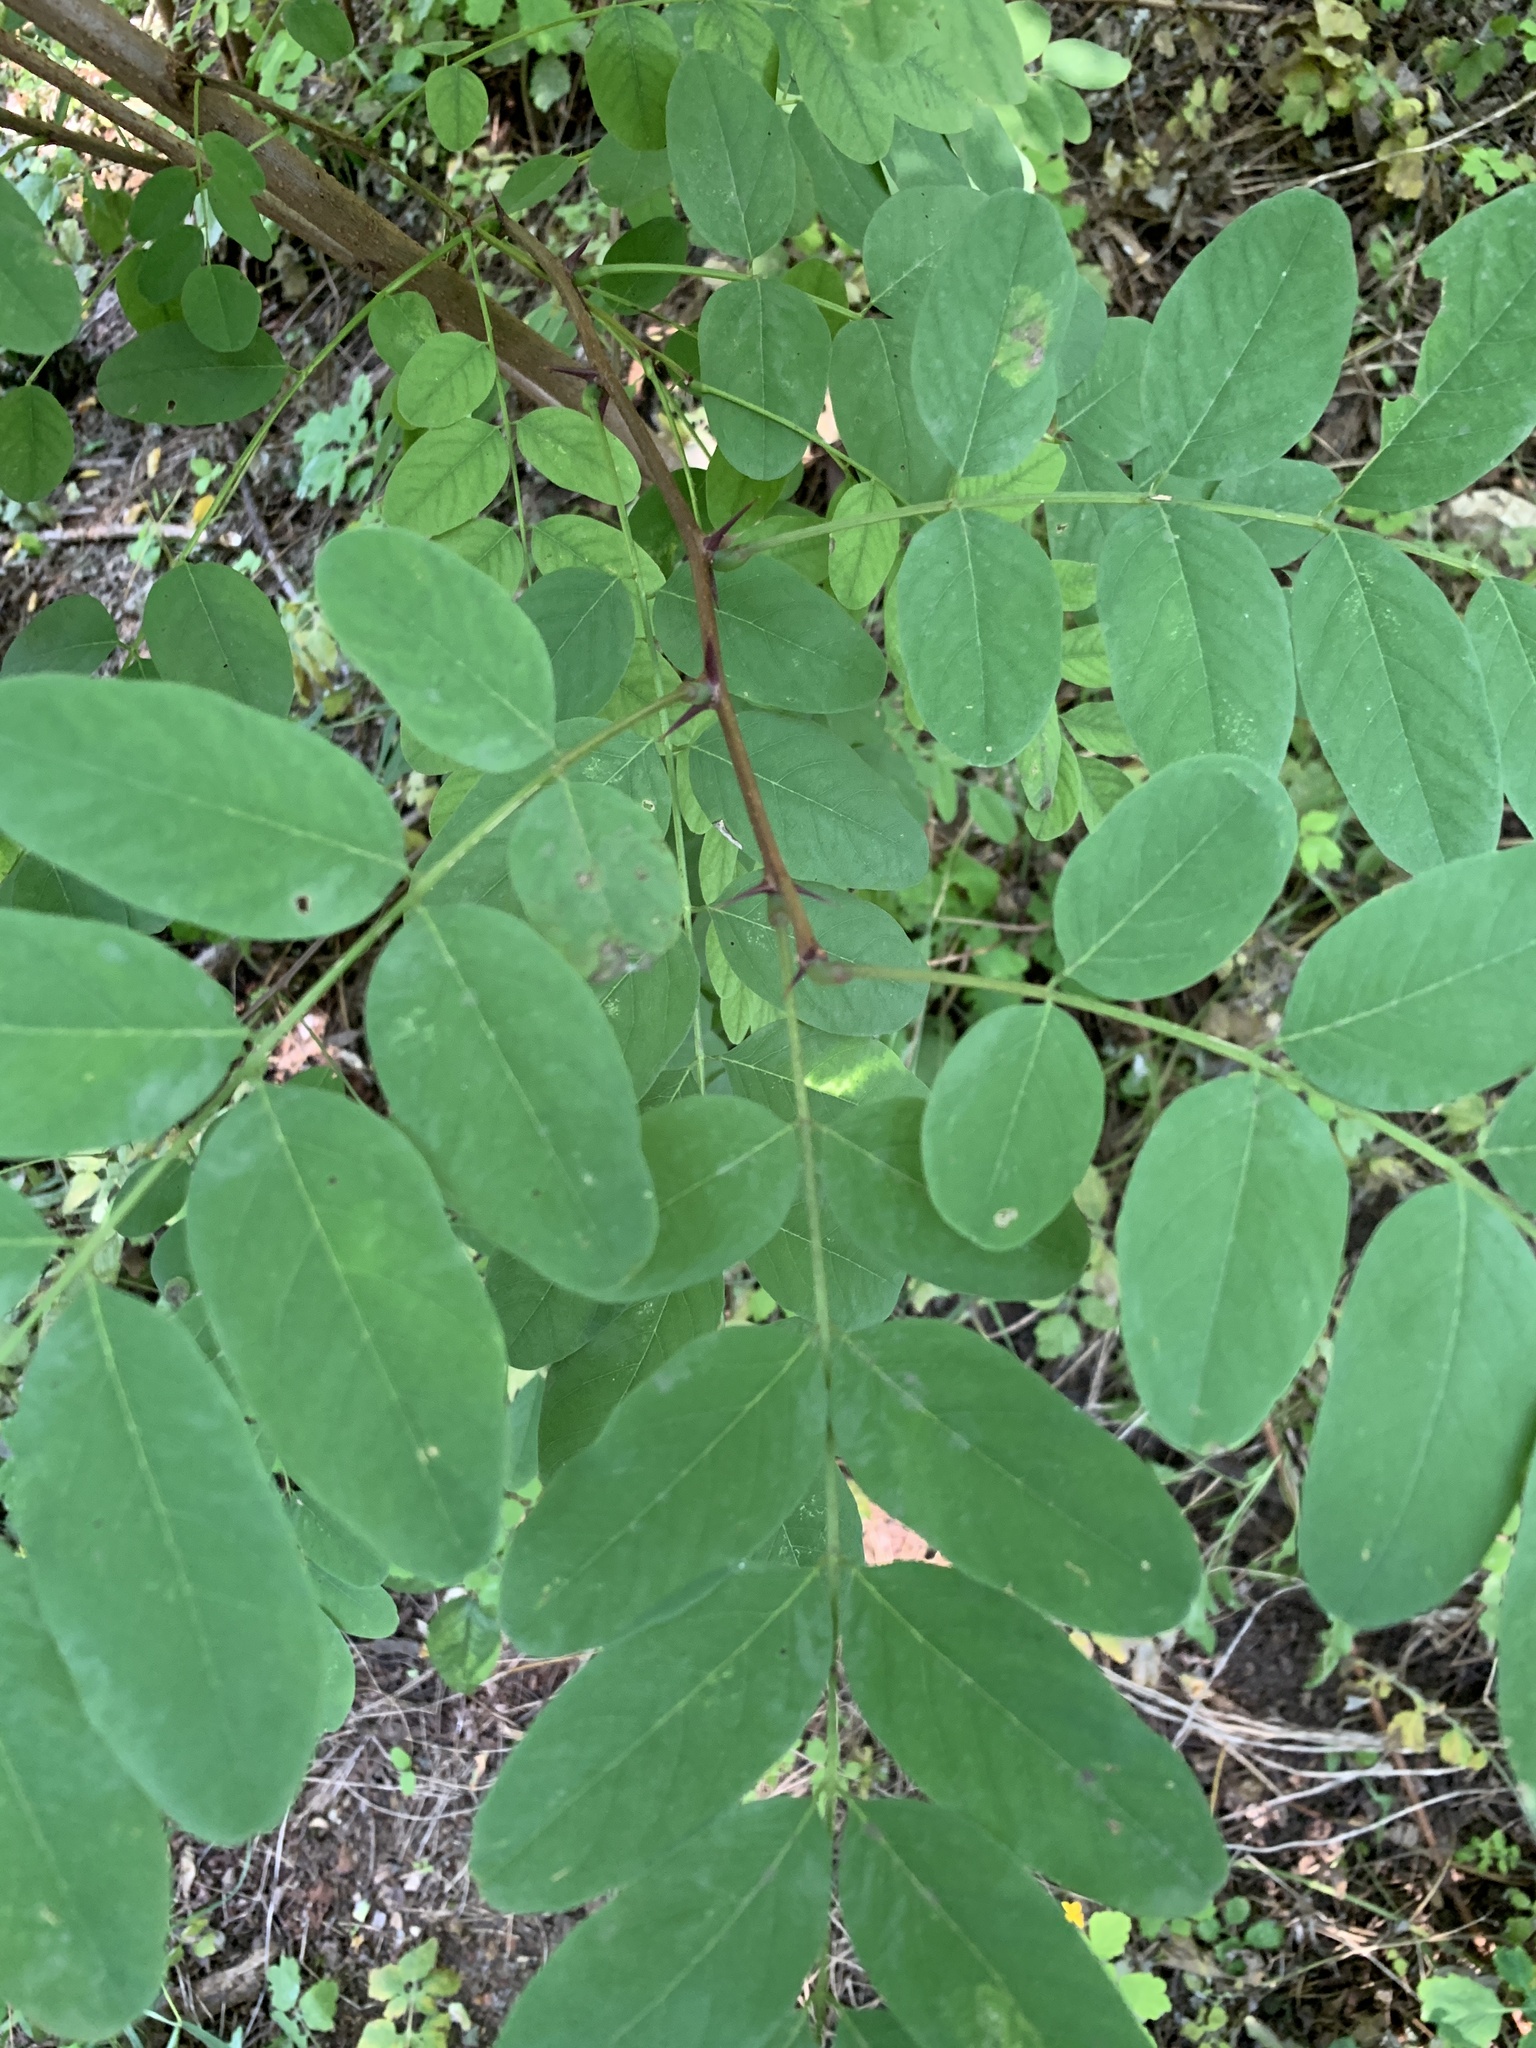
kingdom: Plantae
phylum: Tracheophyta
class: Magnoliopsida
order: Fabales
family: Fabaceae
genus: Robinia
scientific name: Robinia pseudoacacia
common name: Black locust
